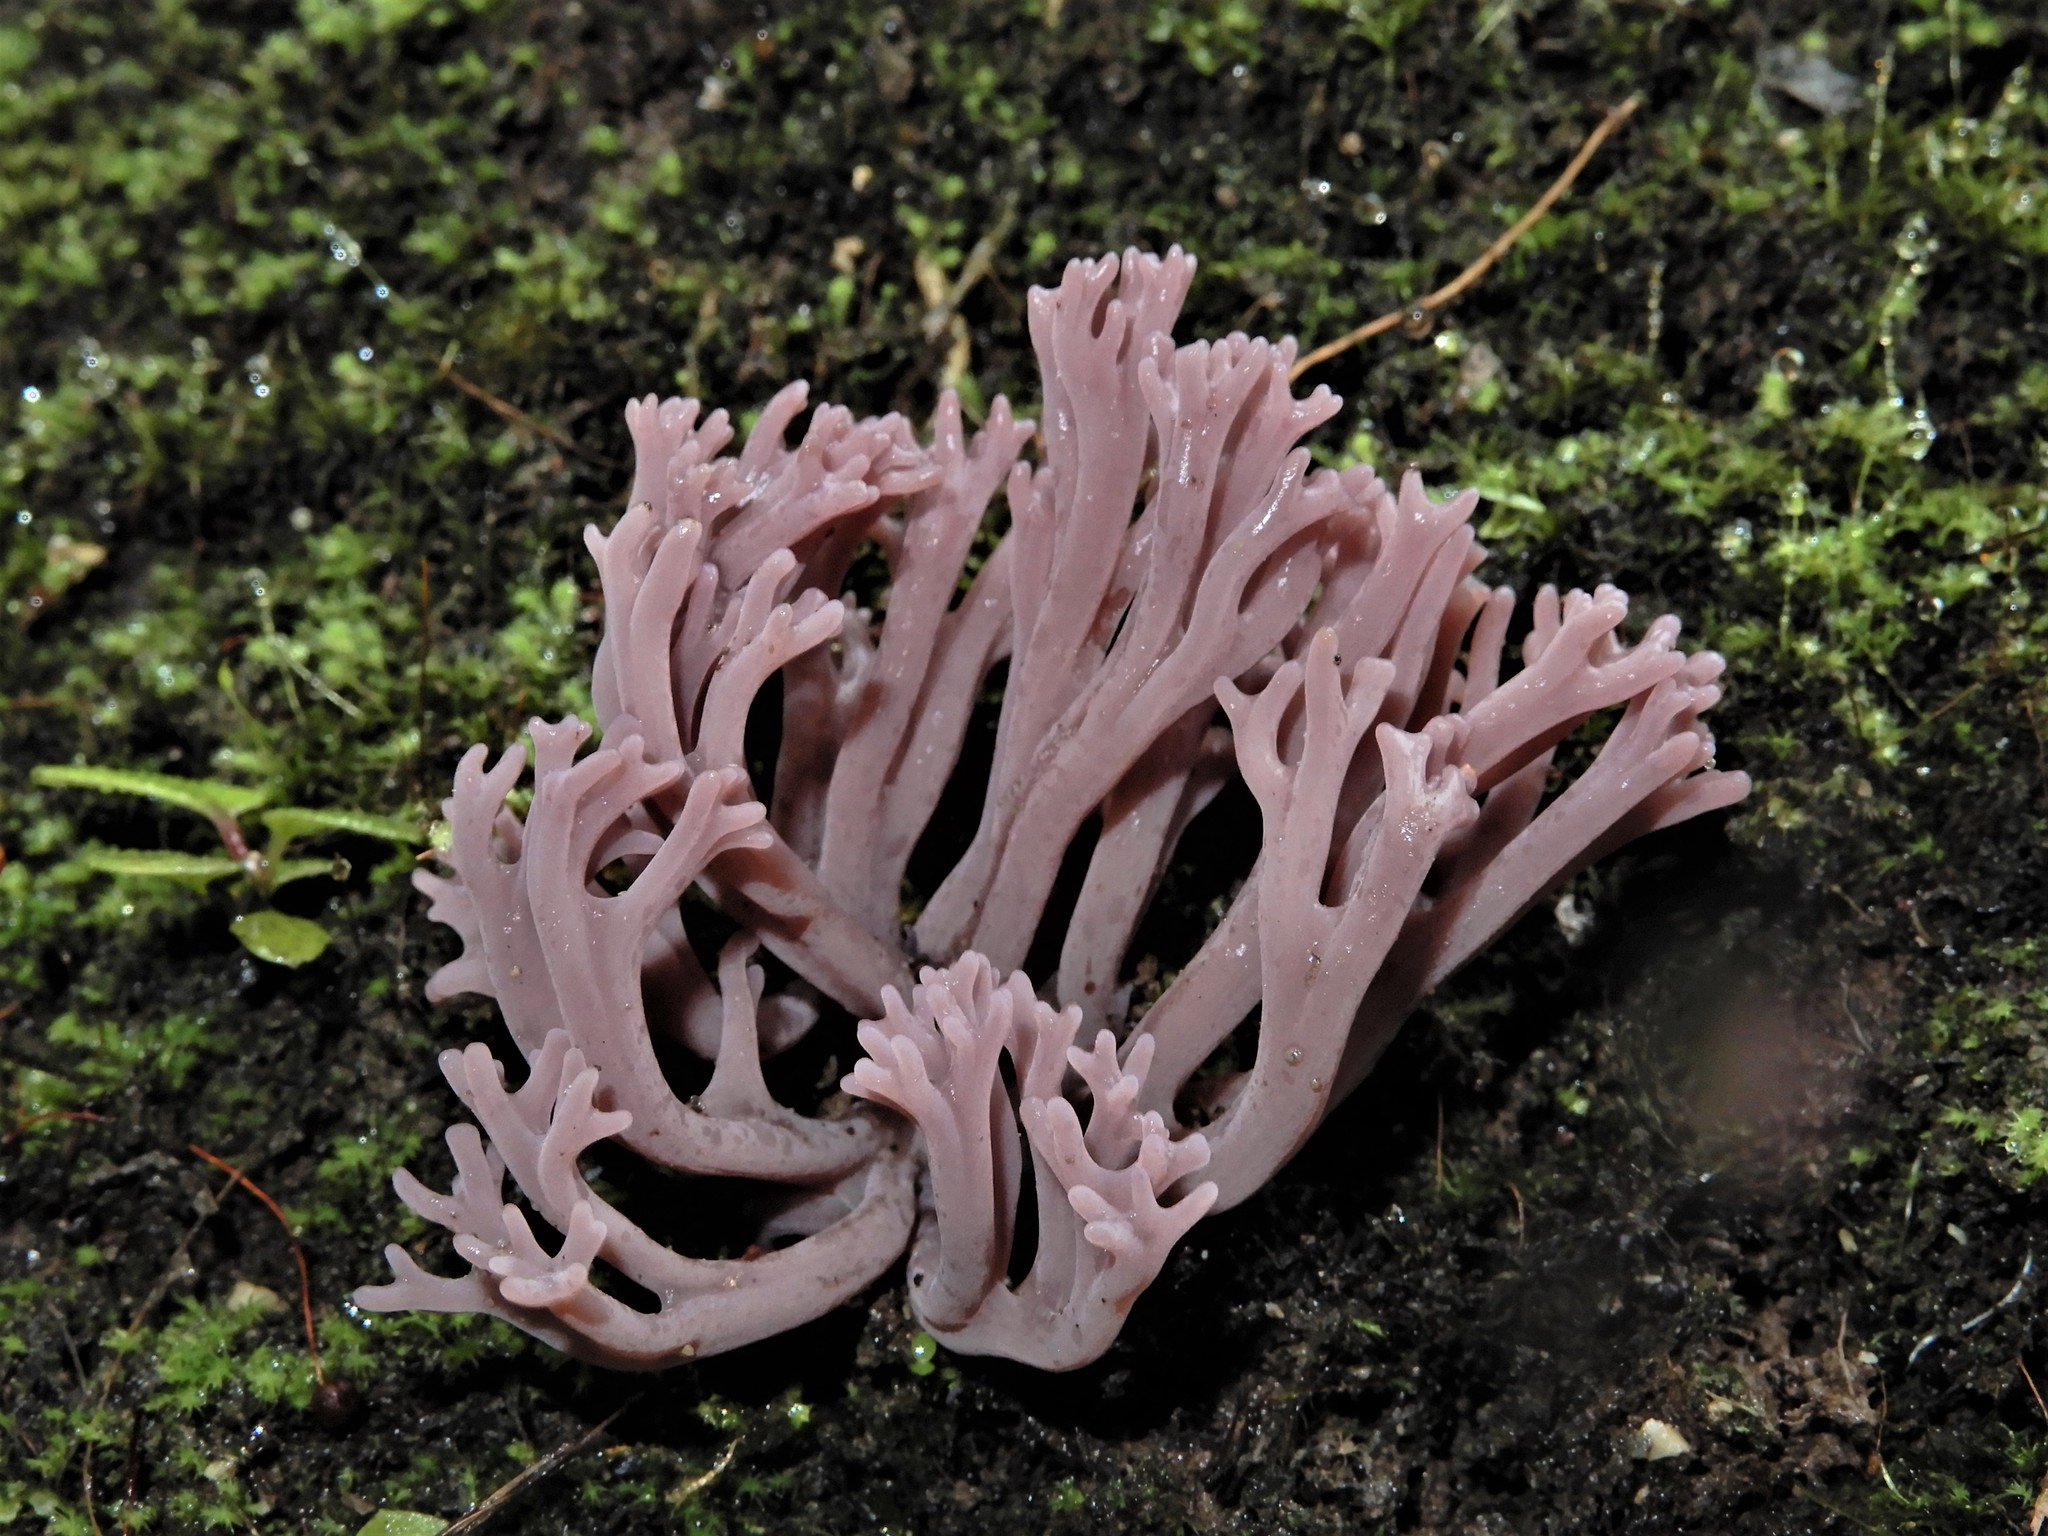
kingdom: Fungi
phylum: Basidiomycota
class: Agaricomycetes
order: Agaricales
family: Clavariaceae
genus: Clavaria
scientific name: Clavaria zollingeri
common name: Violet coral
